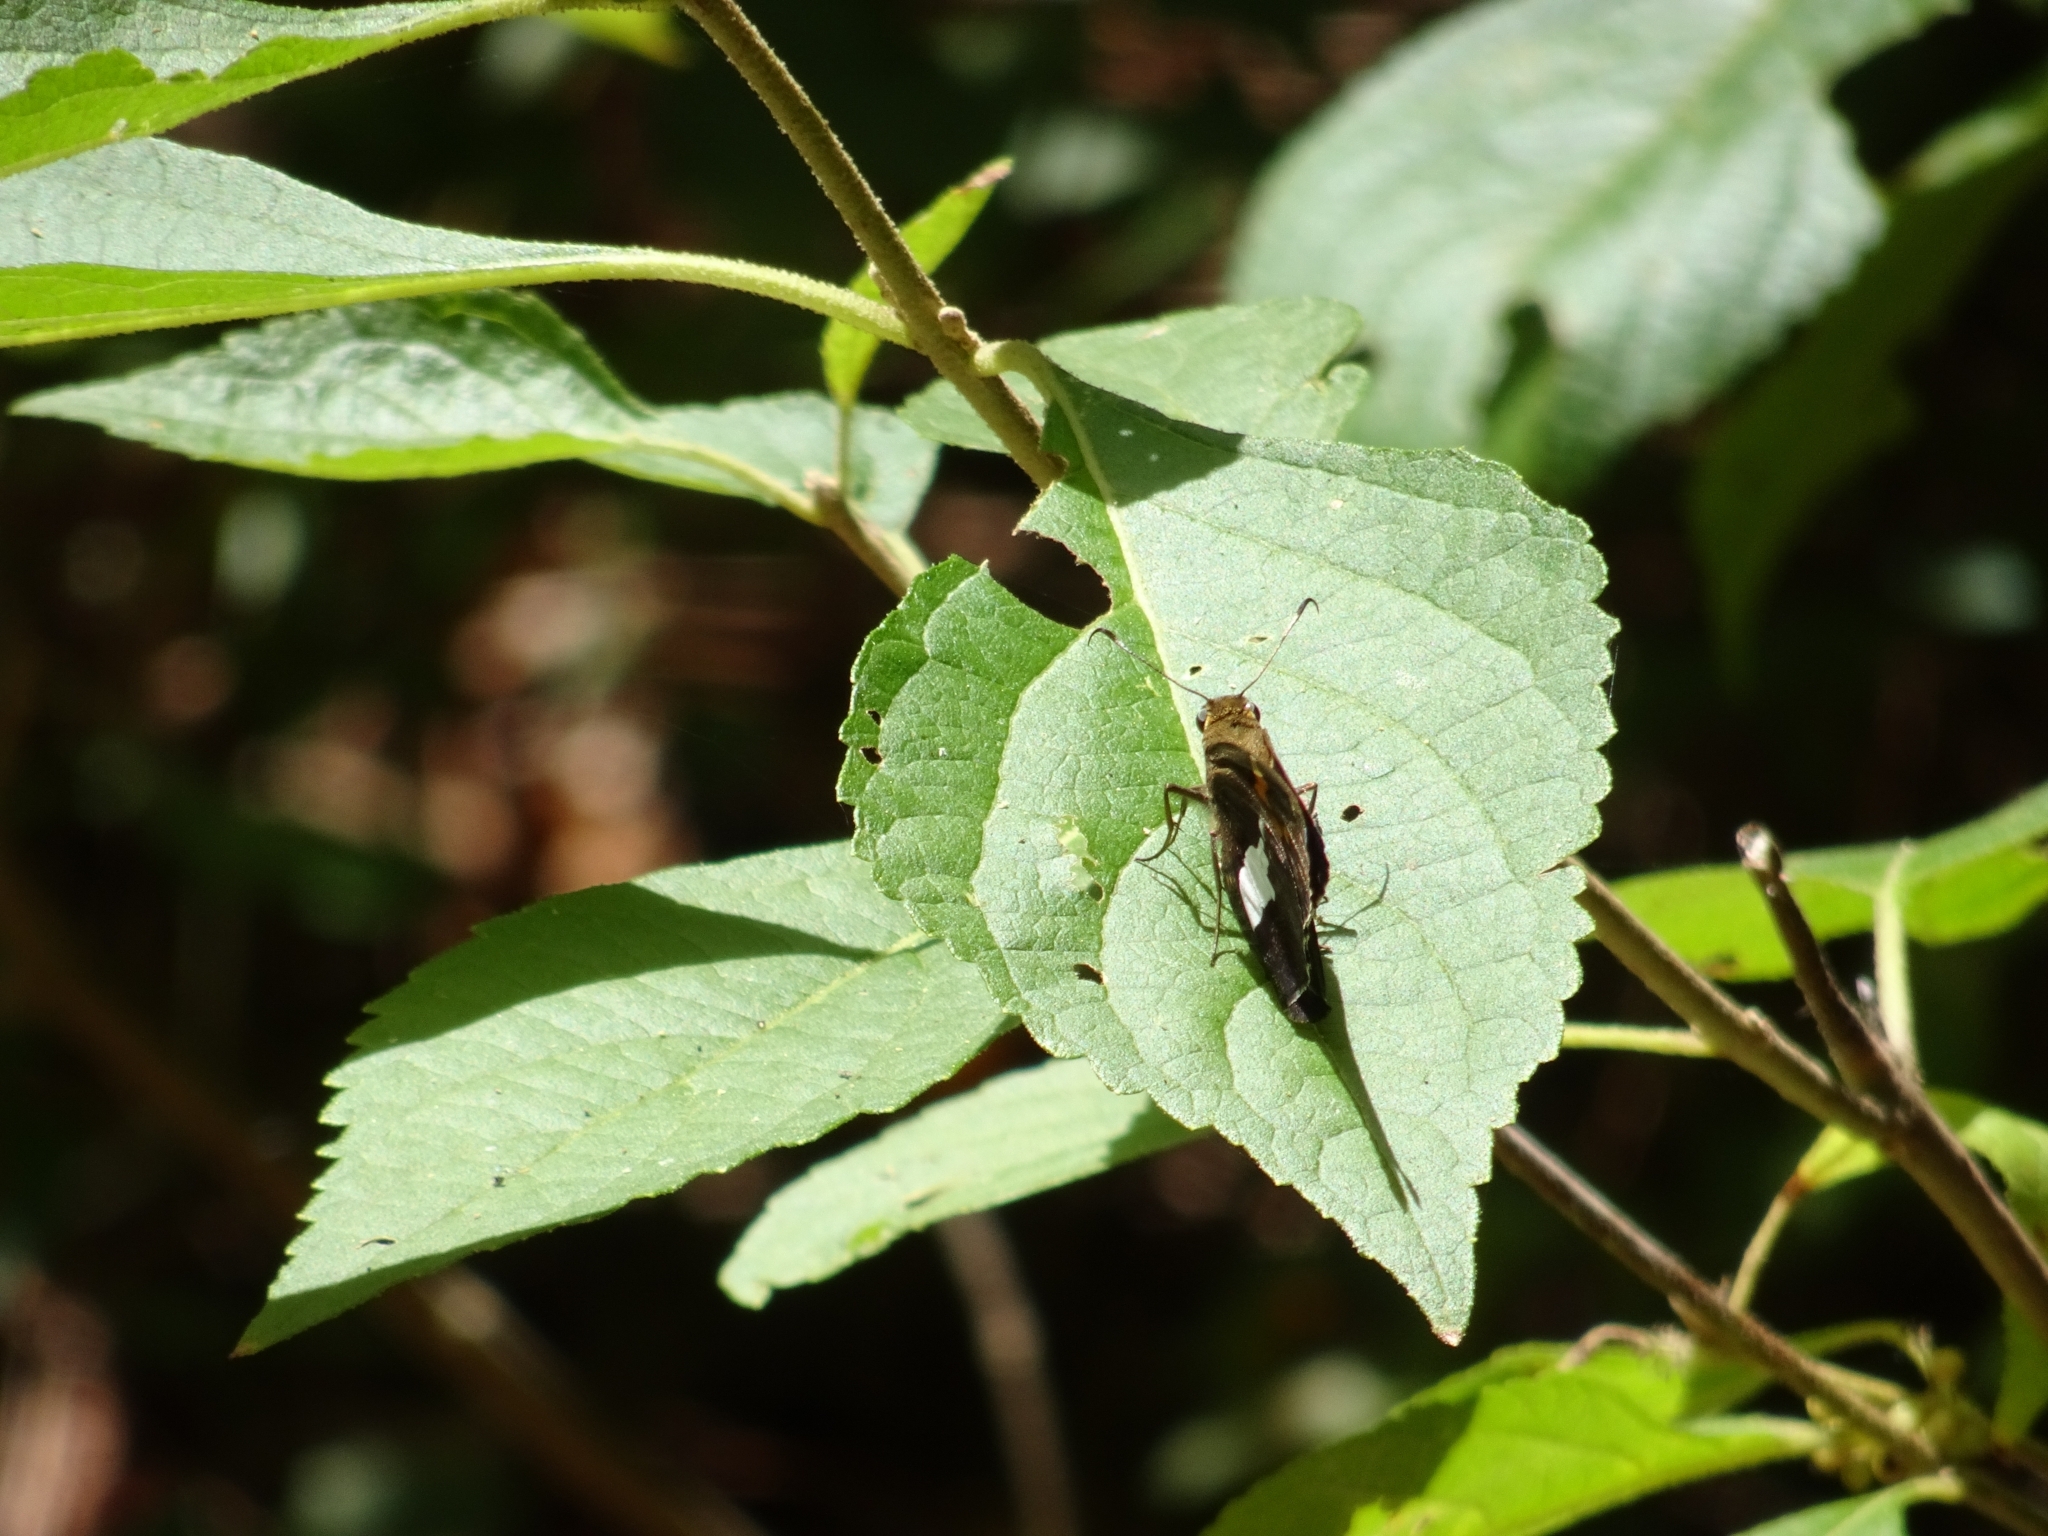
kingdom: Animalia
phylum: Arthropoda
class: Insecta
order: Lepidoptera
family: Hesperiidae
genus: Epargyreus
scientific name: Epargyreus clarus
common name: Silver-spotted skipper
